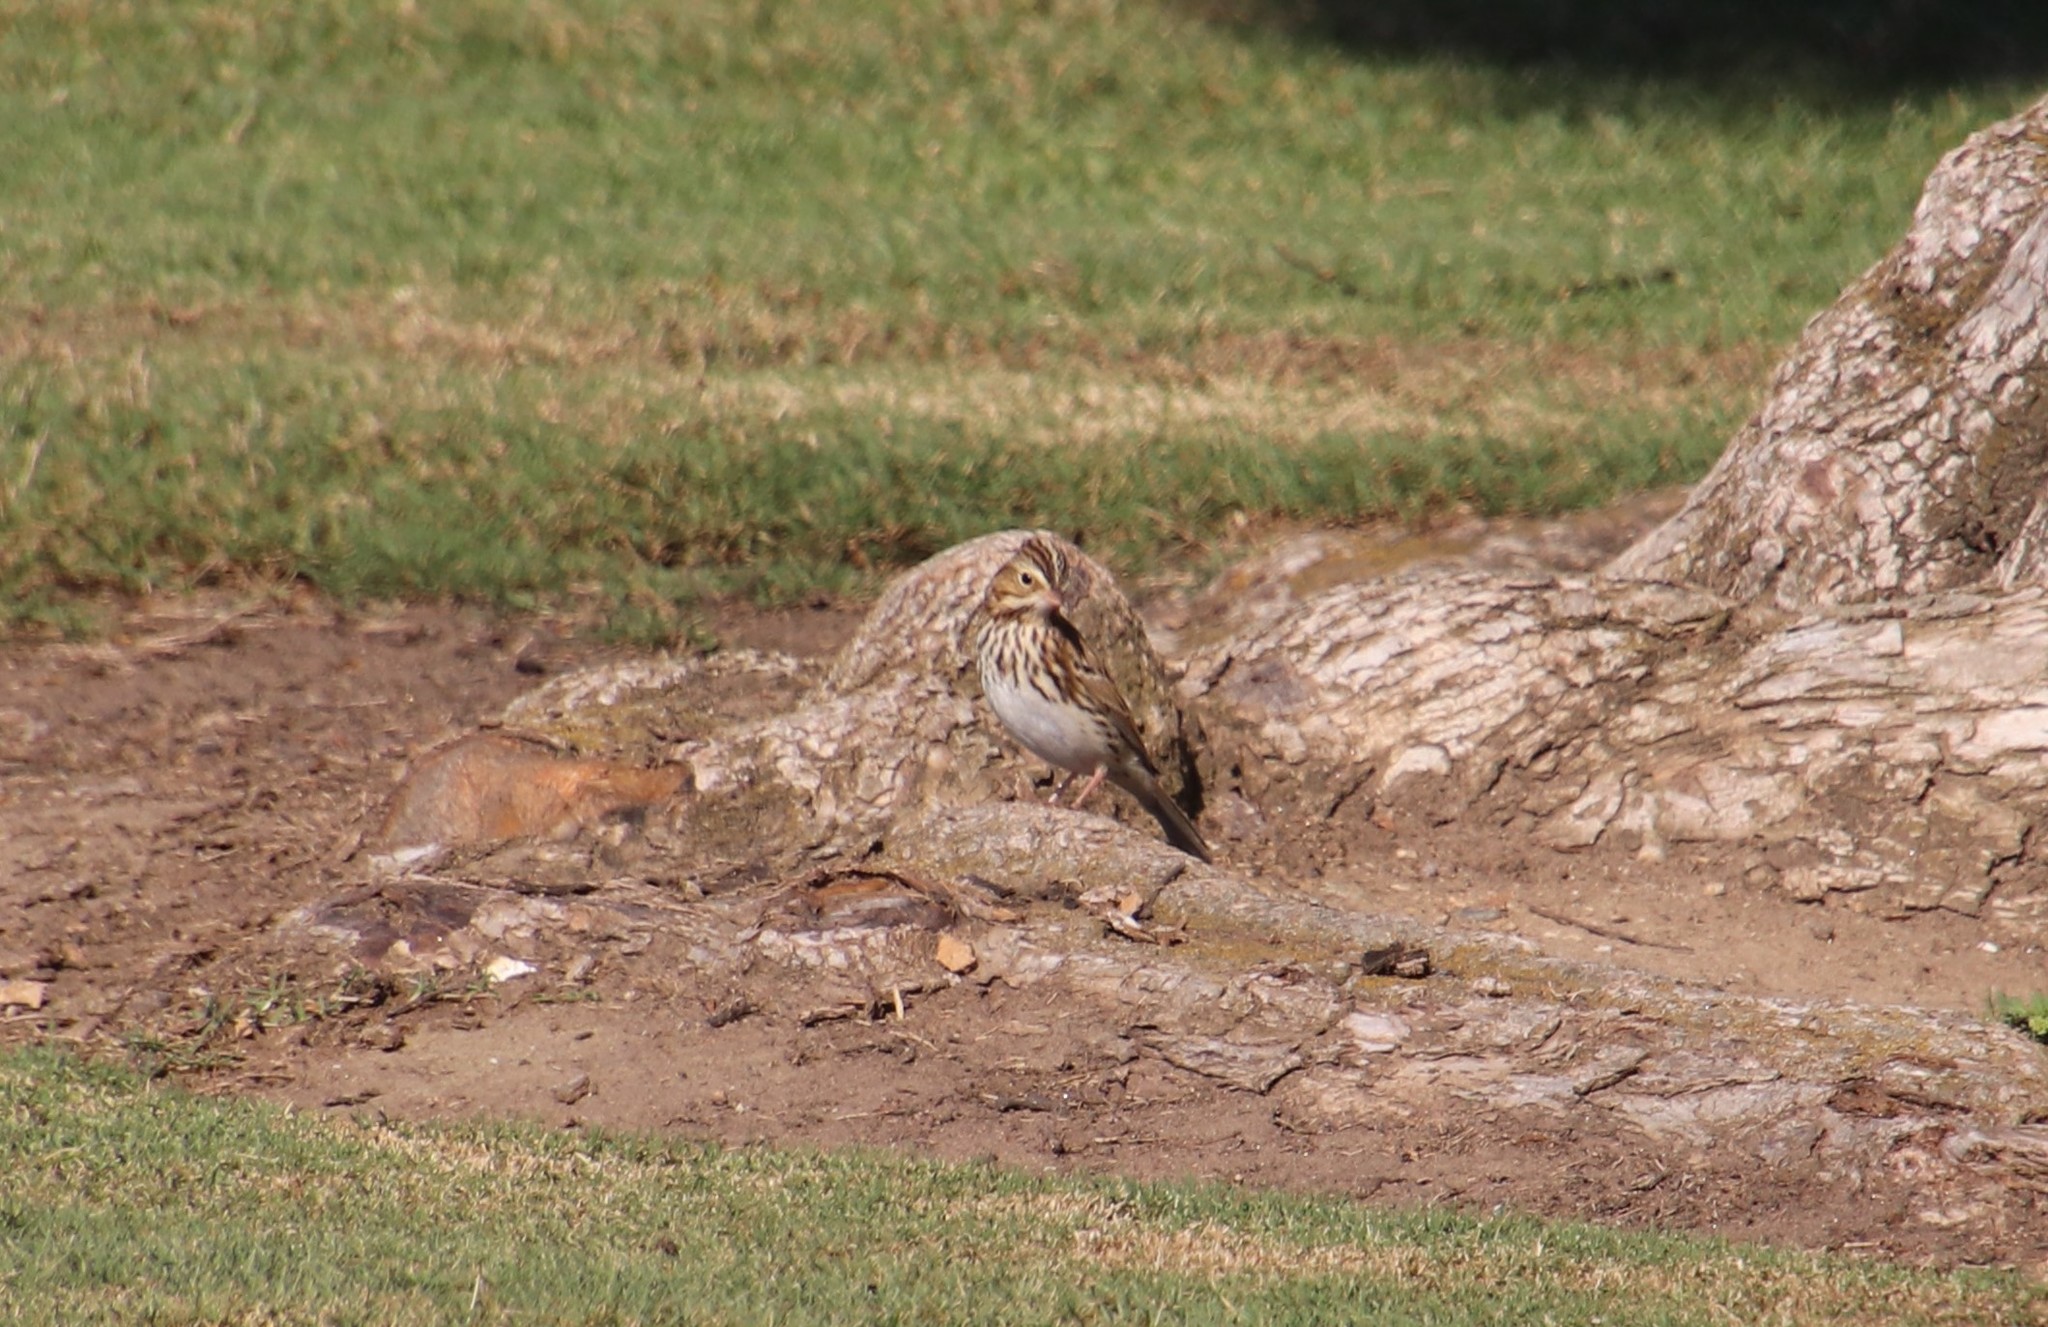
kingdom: Animalia
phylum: Chordata
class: Aves
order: Passeriformes
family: Passerellidae
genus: Passerculus
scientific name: Passerculus sandwichensis
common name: Savannah sparrow
